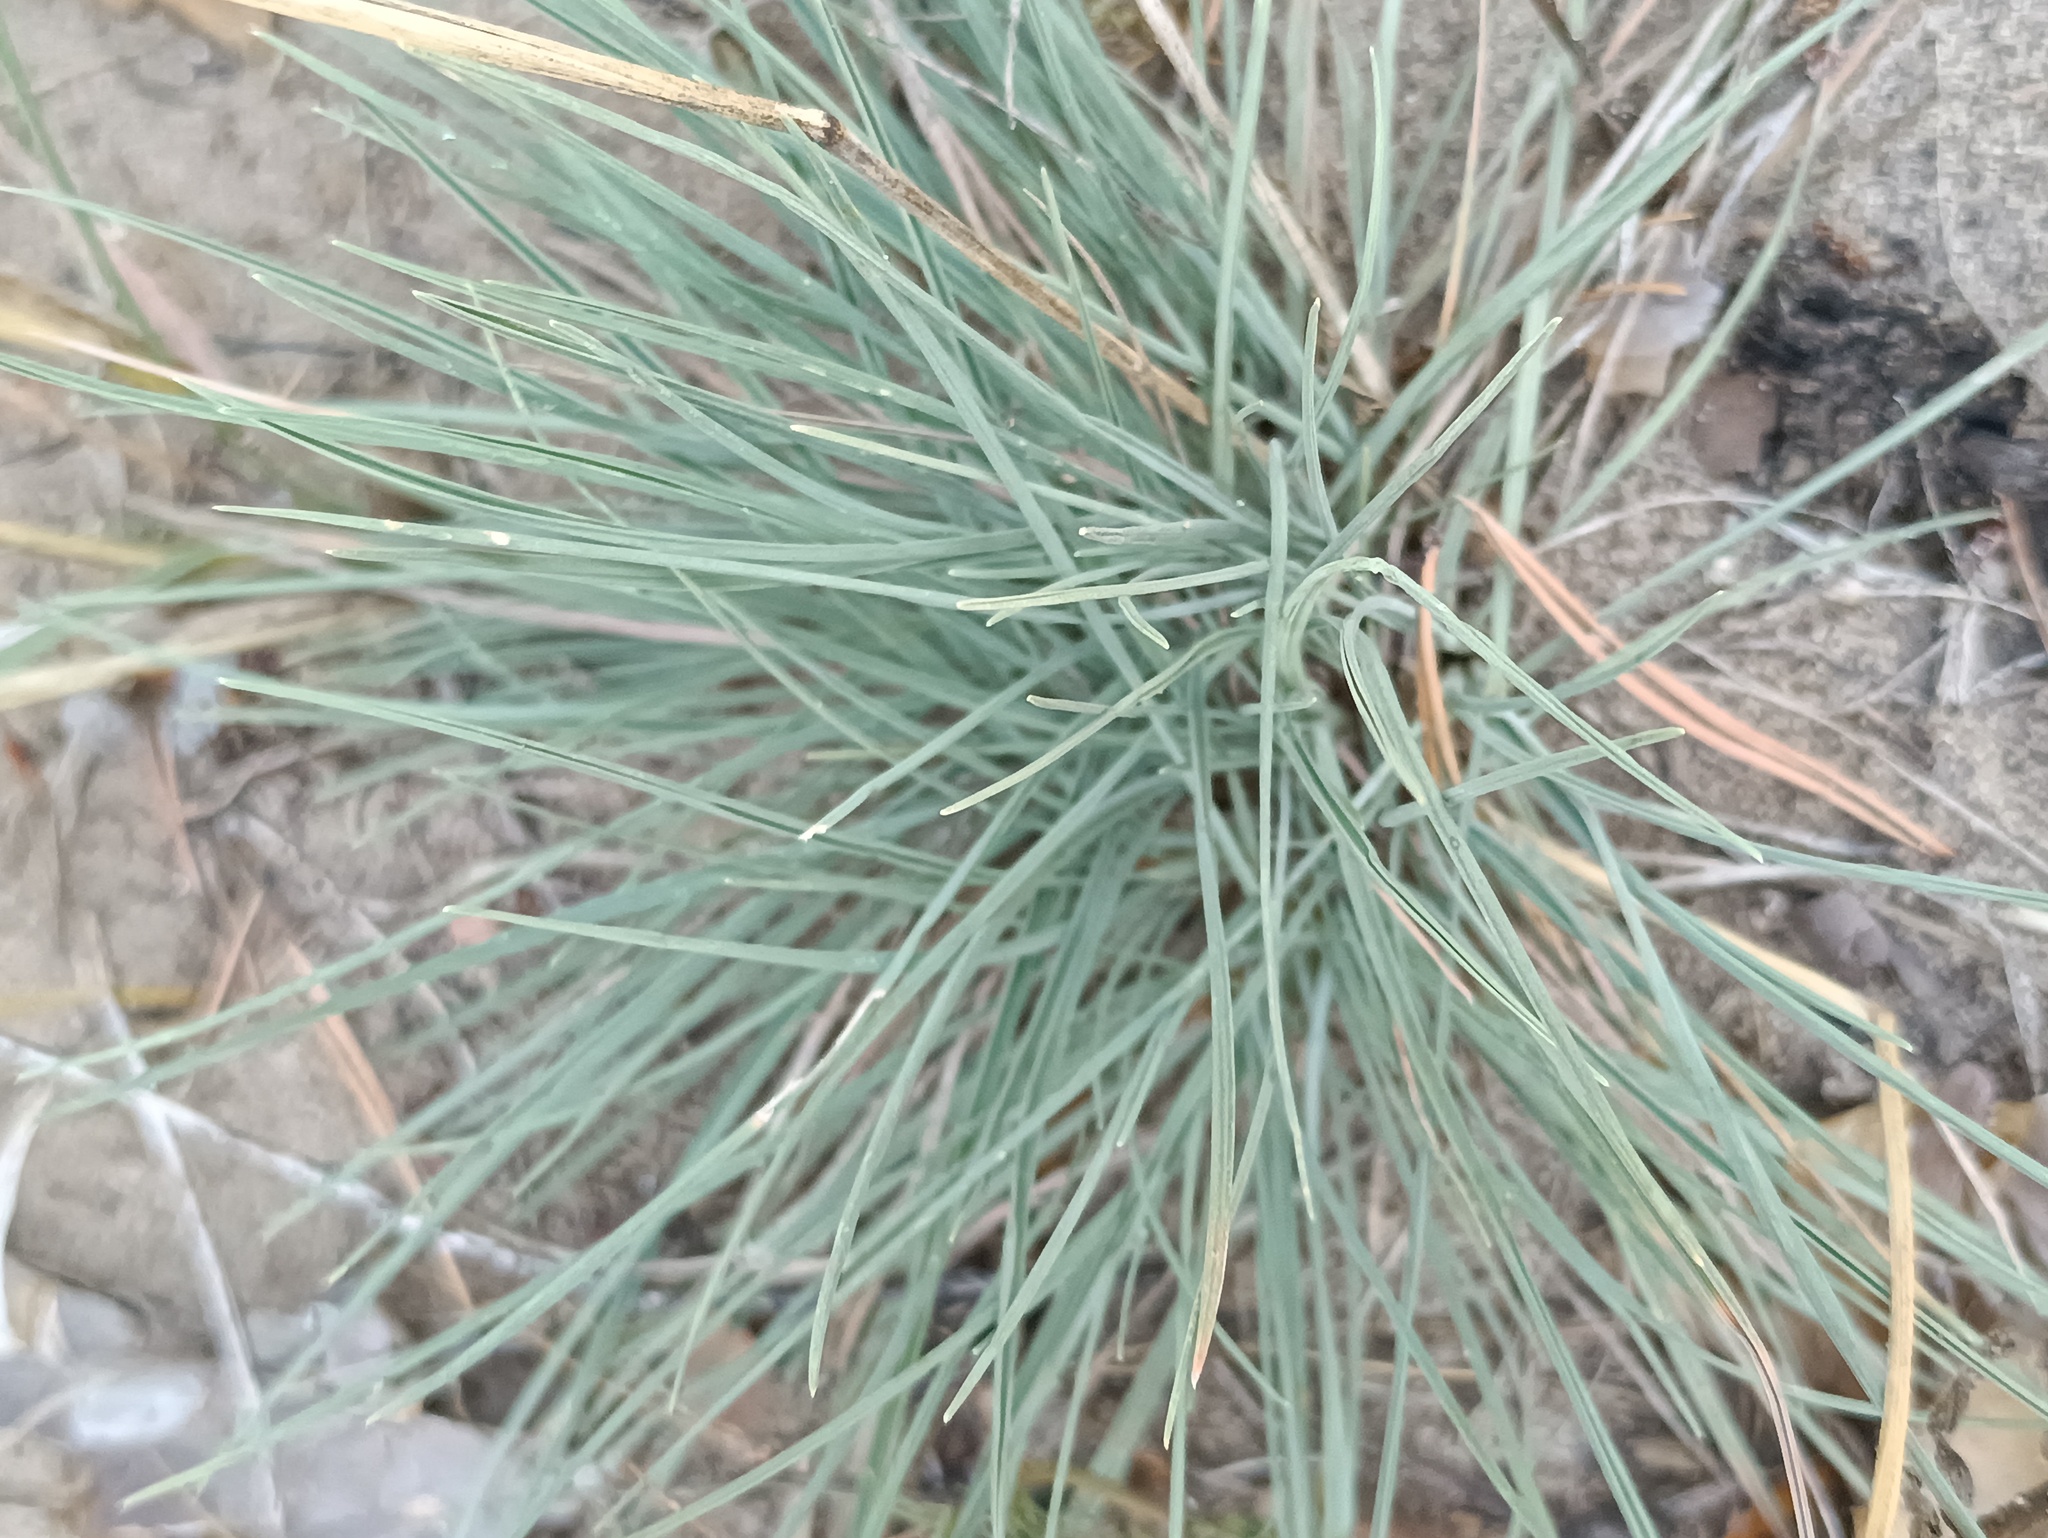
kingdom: Plantae
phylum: Tracheophyta
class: Liliopsida
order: Poales
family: Poaceae
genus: Koeleria
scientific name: Koeleria glauca
